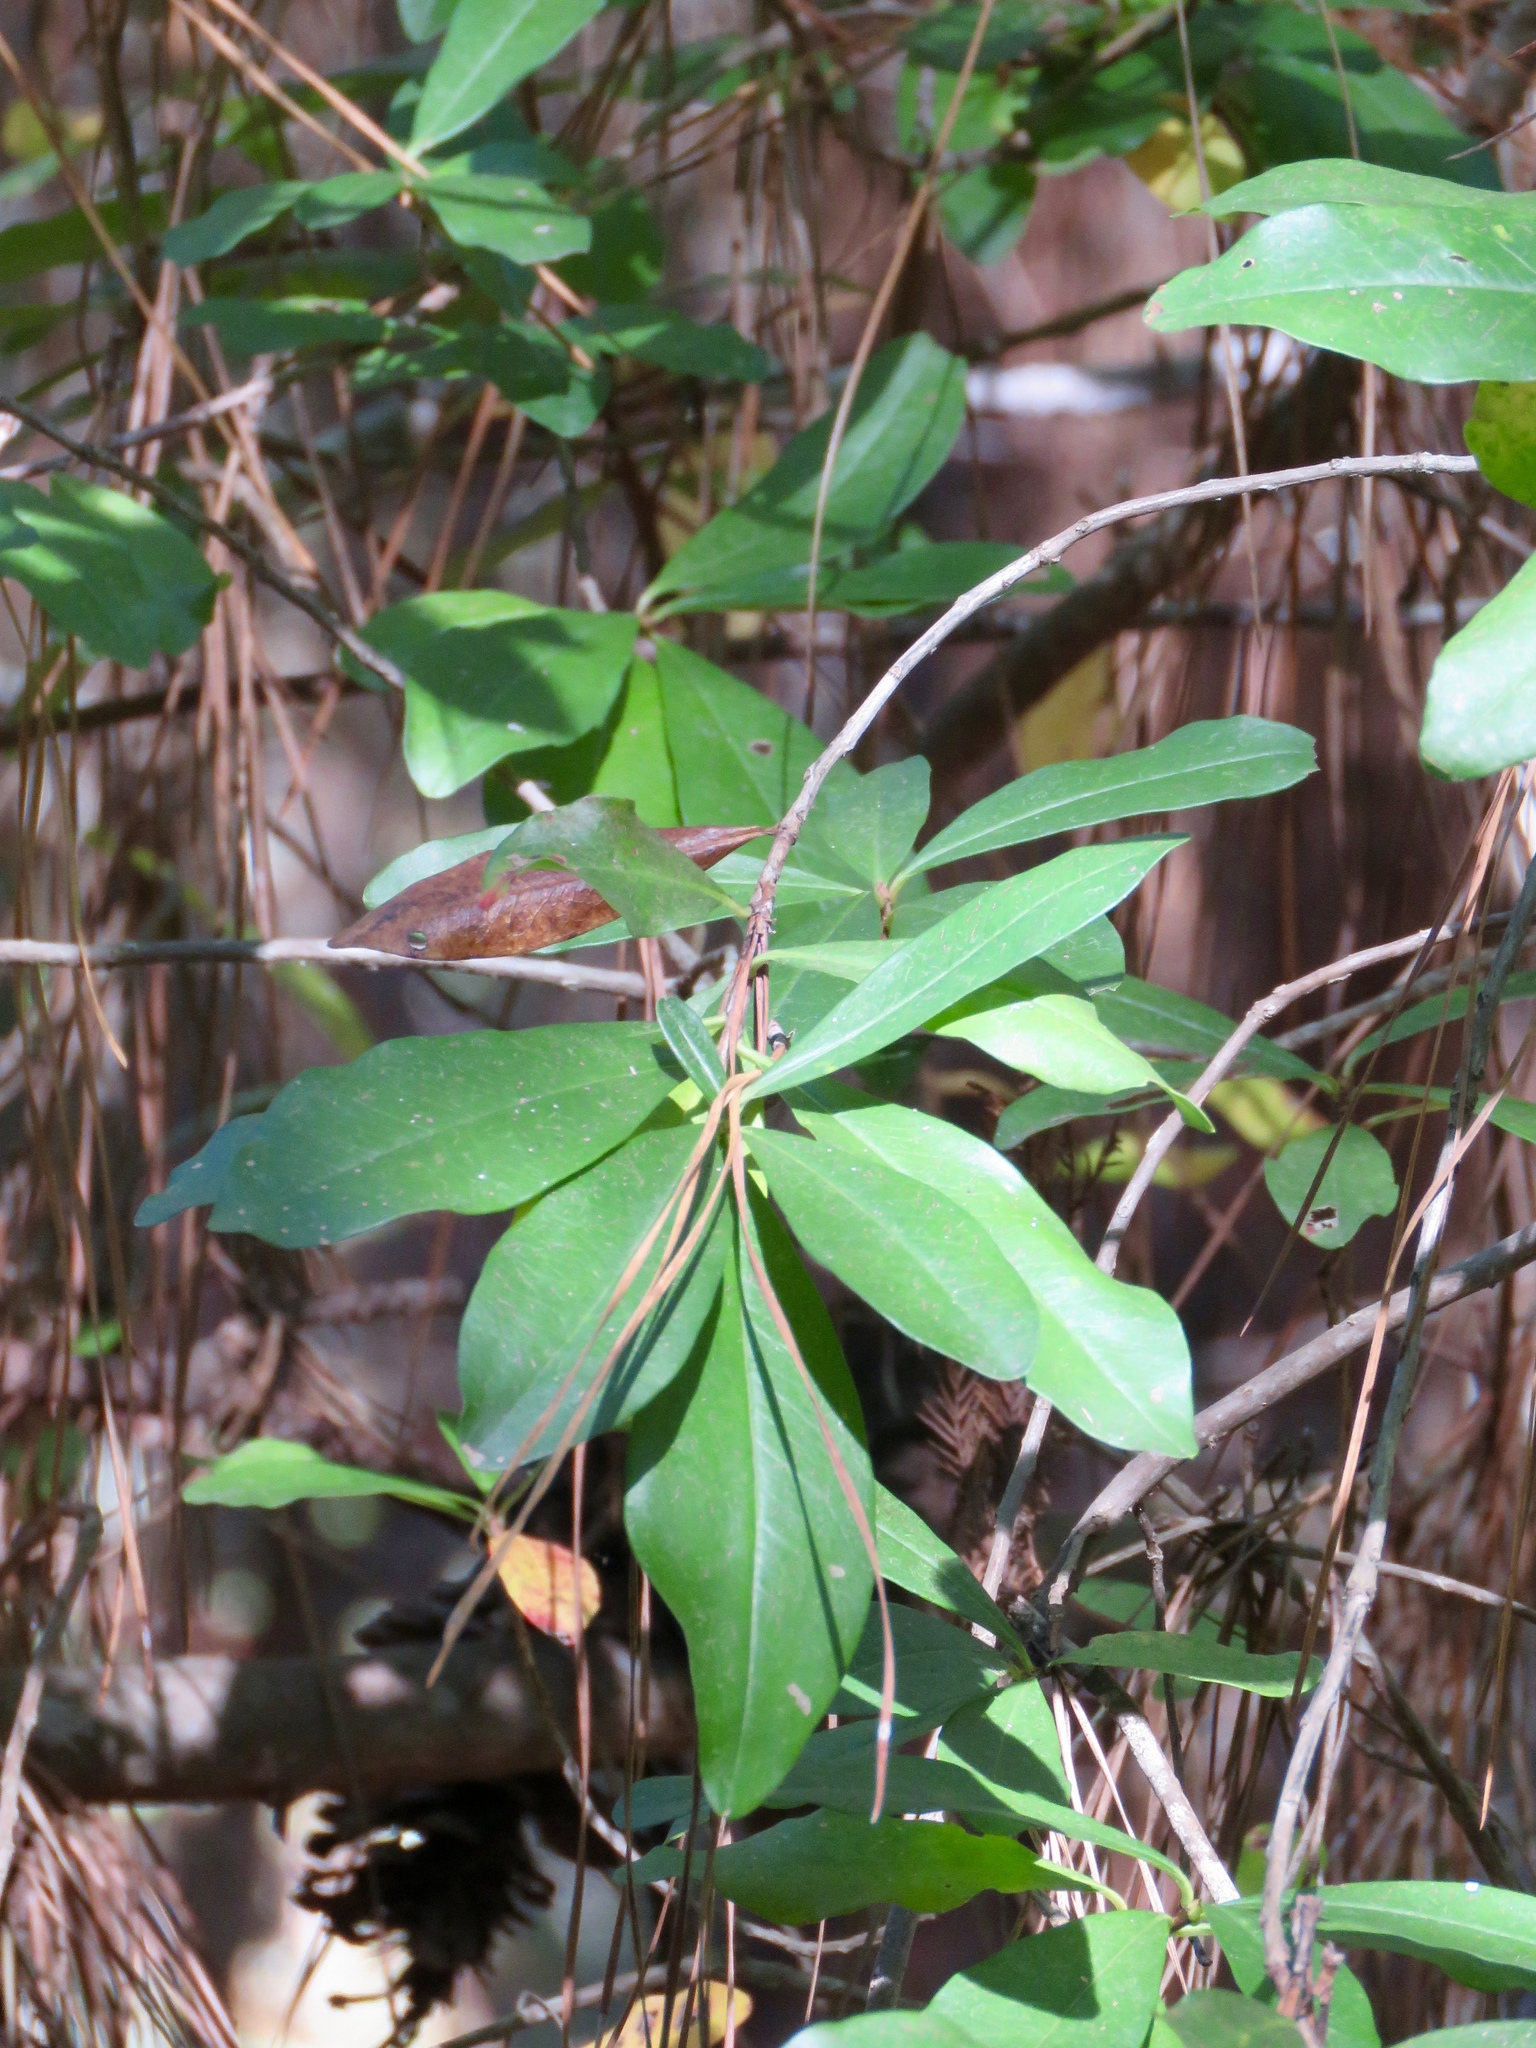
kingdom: Plantae
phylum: Tracheophyta
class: Magnoliopsida
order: Ericales
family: Cyrillaceae
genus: Cyrilla
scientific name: Cyrilla racemiflora
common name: Black titi
